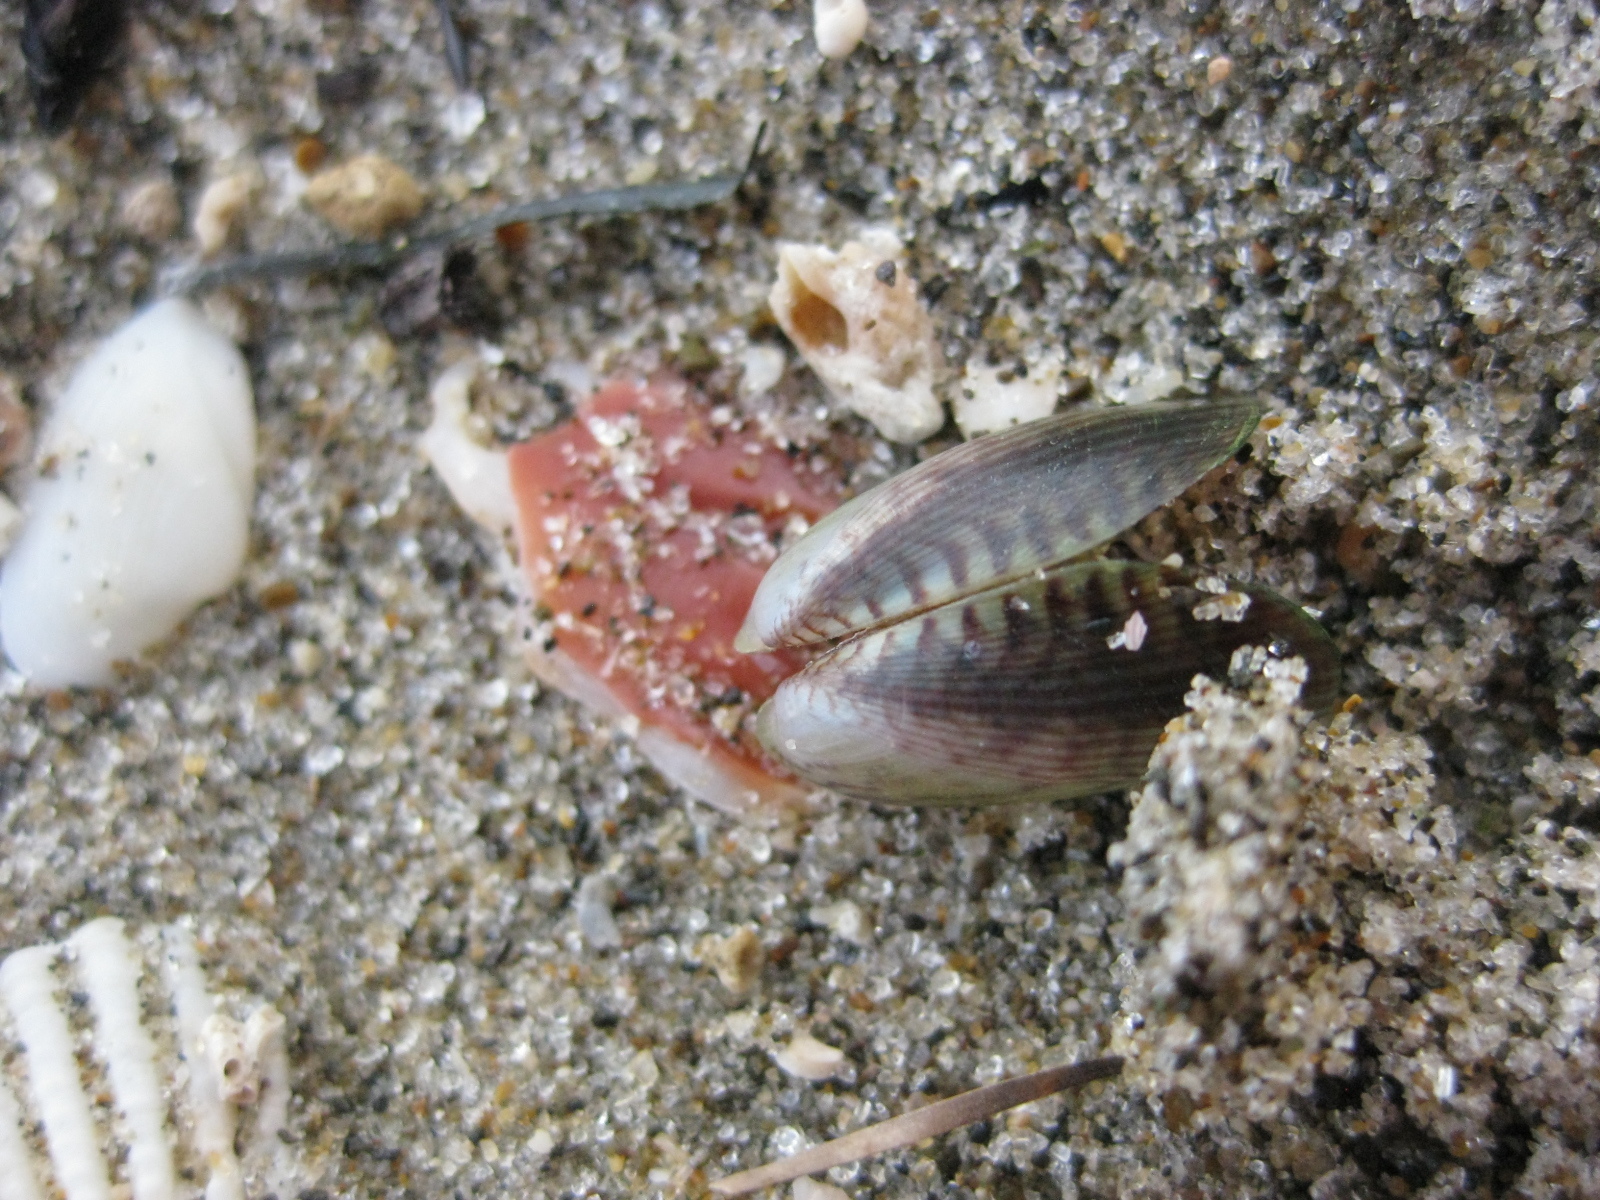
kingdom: Animalia
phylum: Mollusca
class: Bivalvia
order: Mytilida
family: Mytilidae
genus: Arcuatula
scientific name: Arcuatula senhousia
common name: Asian mussel
